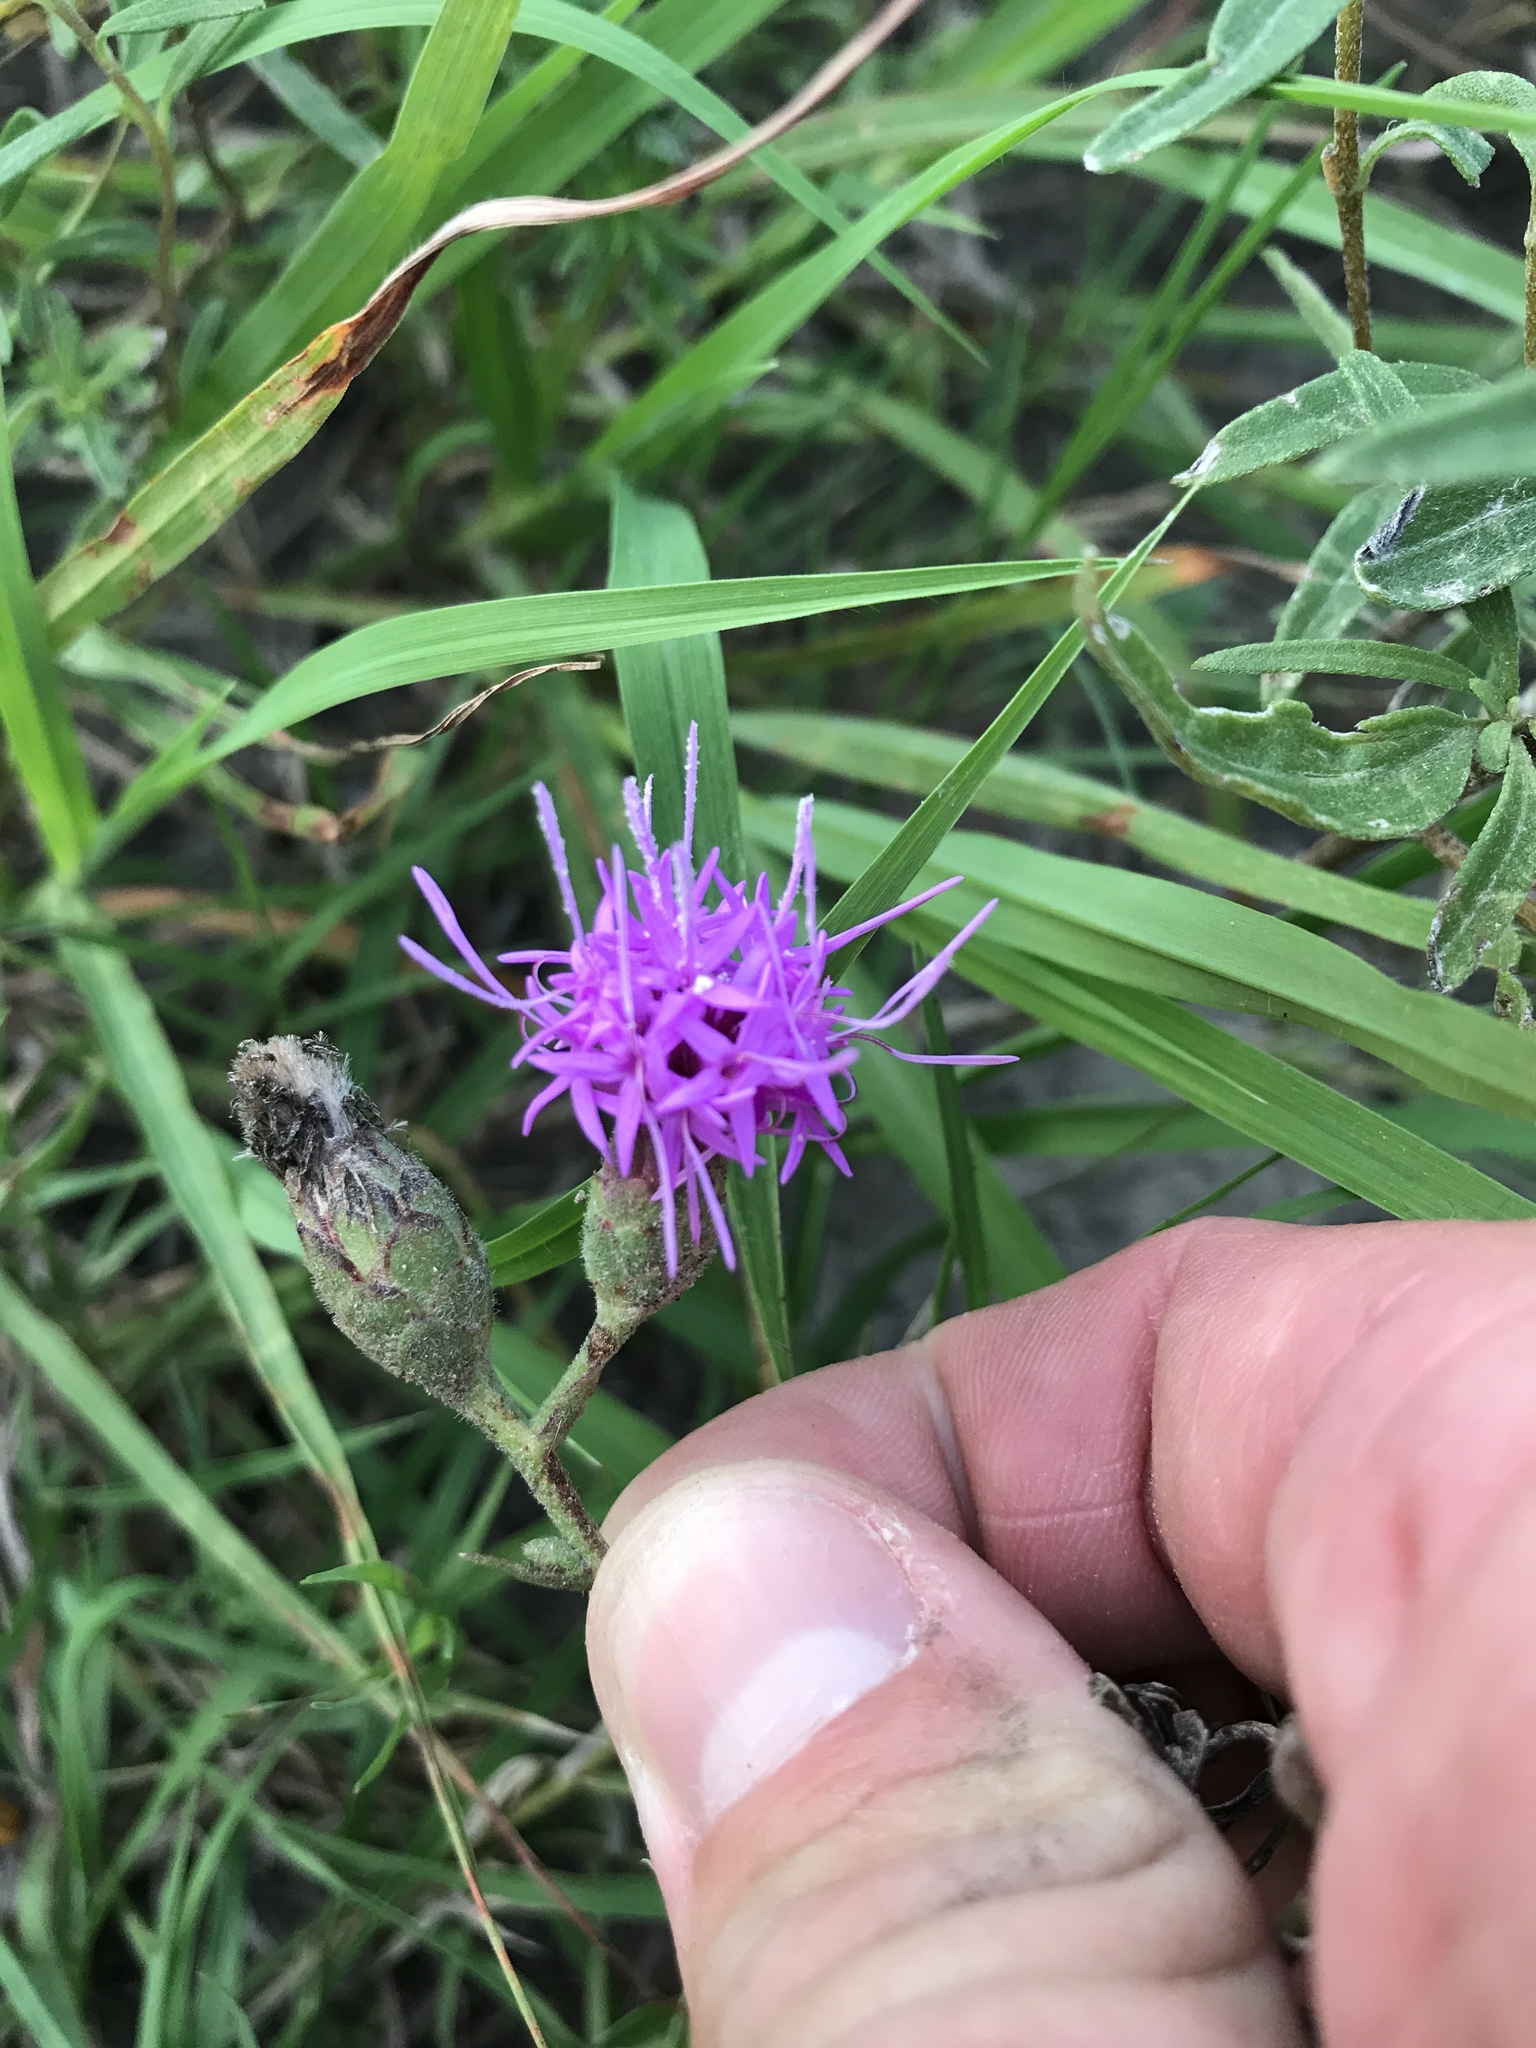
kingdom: Plantae
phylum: Tracheophyta
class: Magnoliopsida
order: Asterales
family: Asteraceae
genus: Liatris
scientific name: Liatris cymosa
